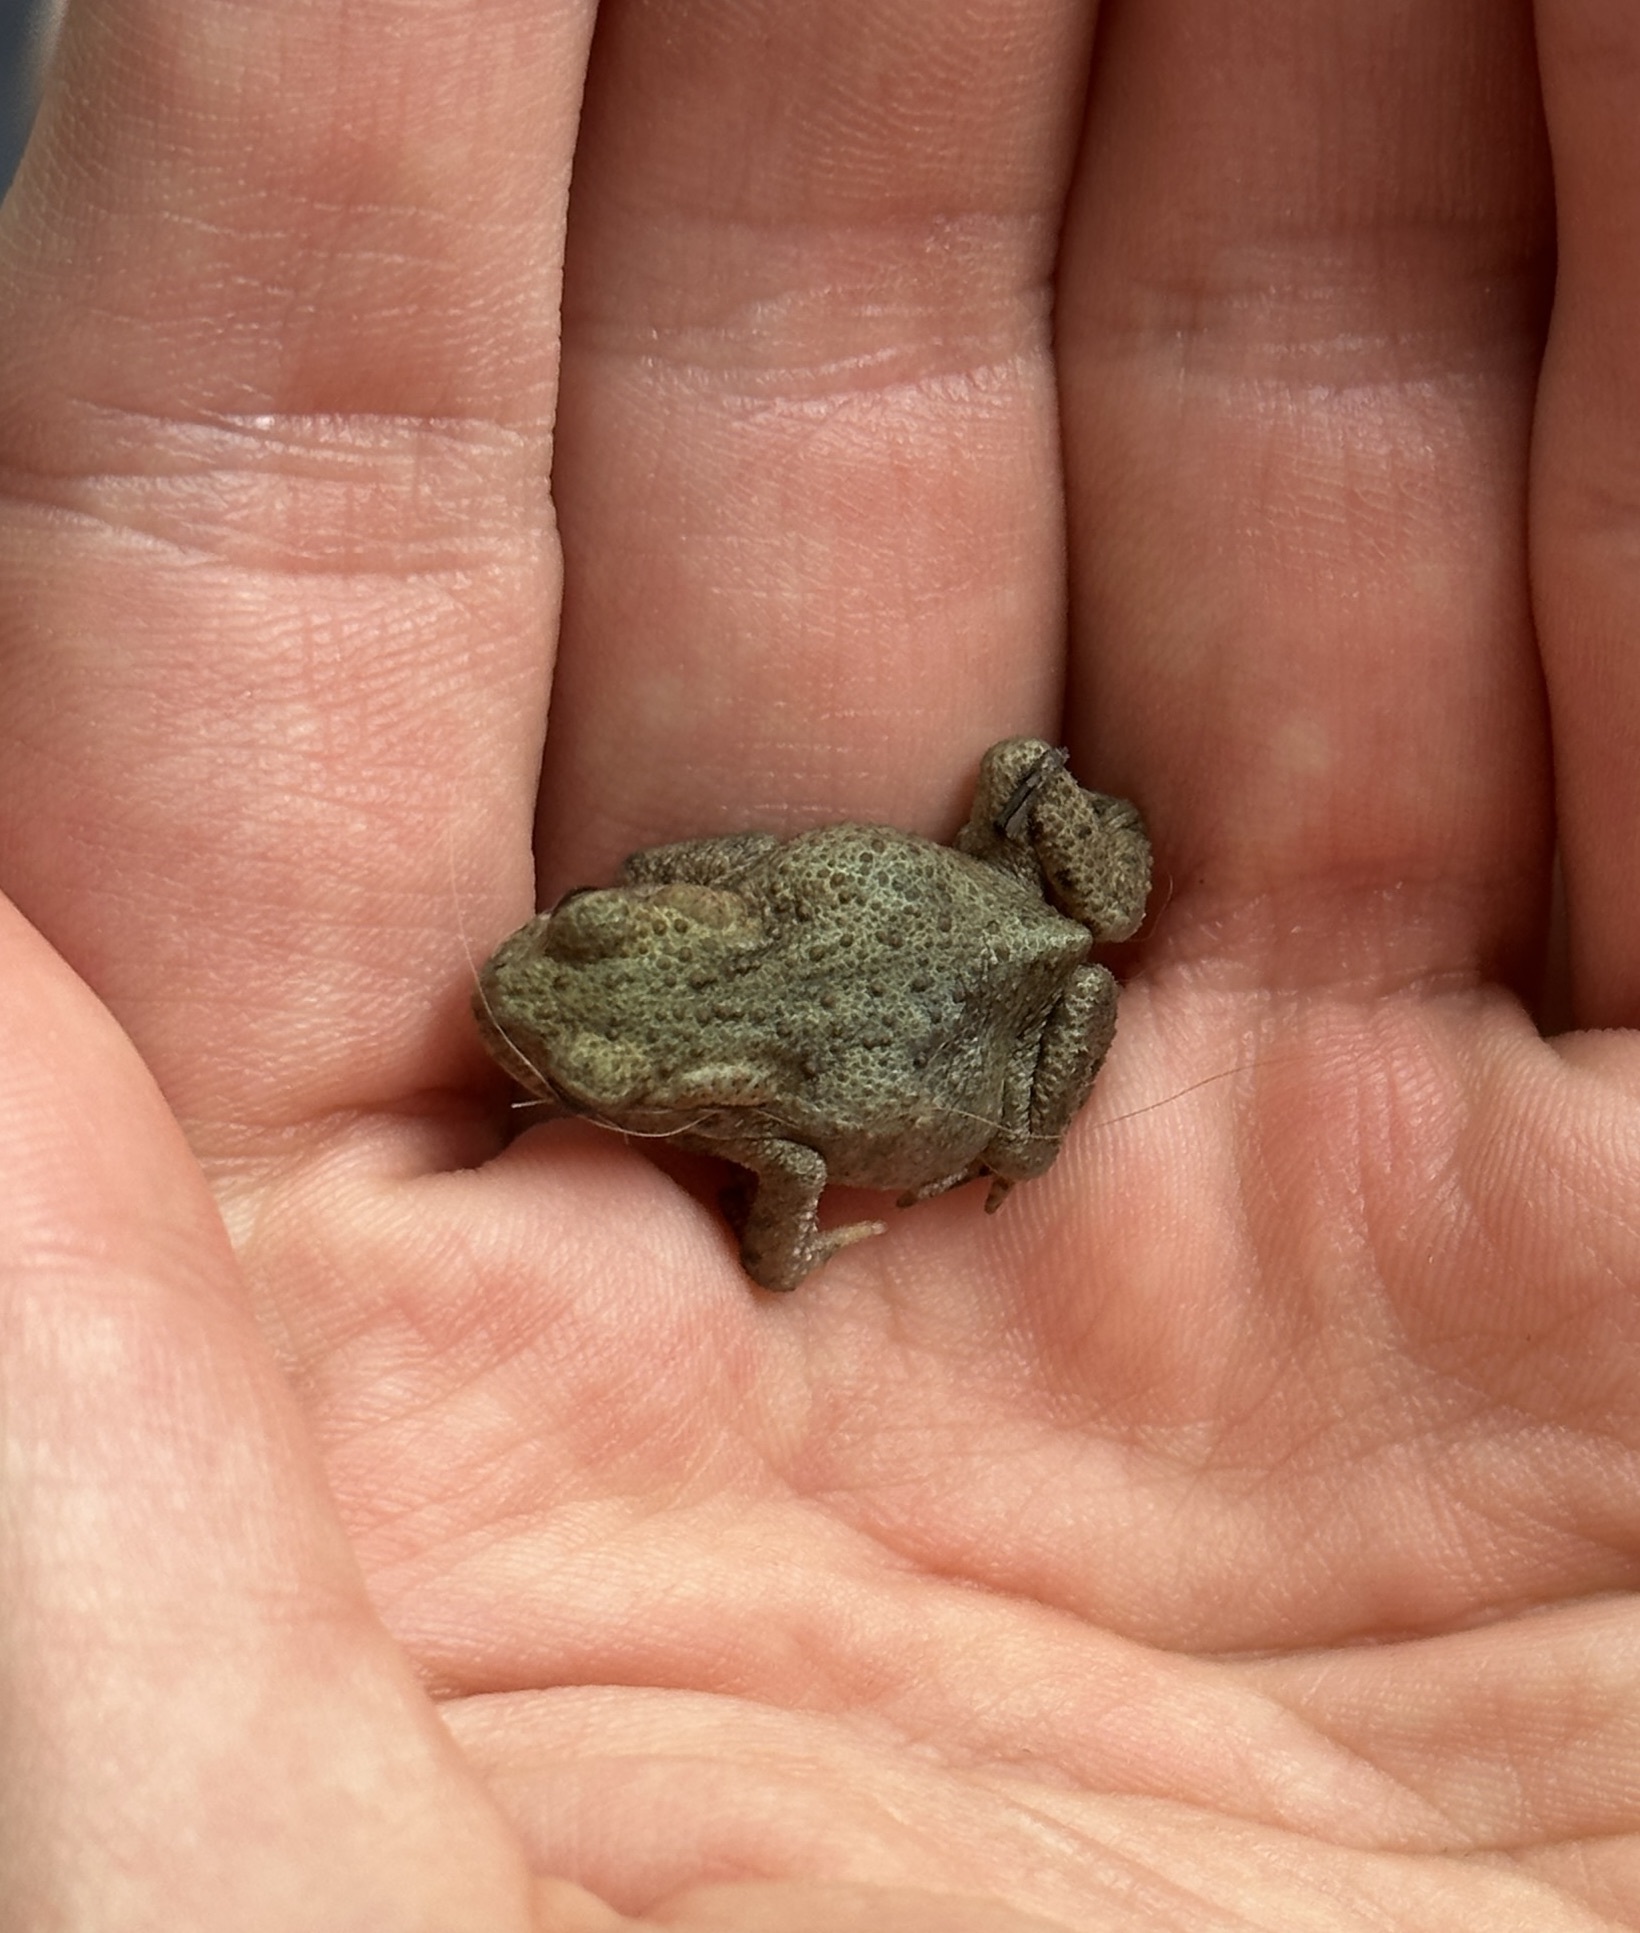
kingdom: Animalia
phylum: Chordata
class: Amphibia
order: Anura
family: Bufonidae
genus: Bufo
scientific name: Bufo bufo
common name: Common toad
